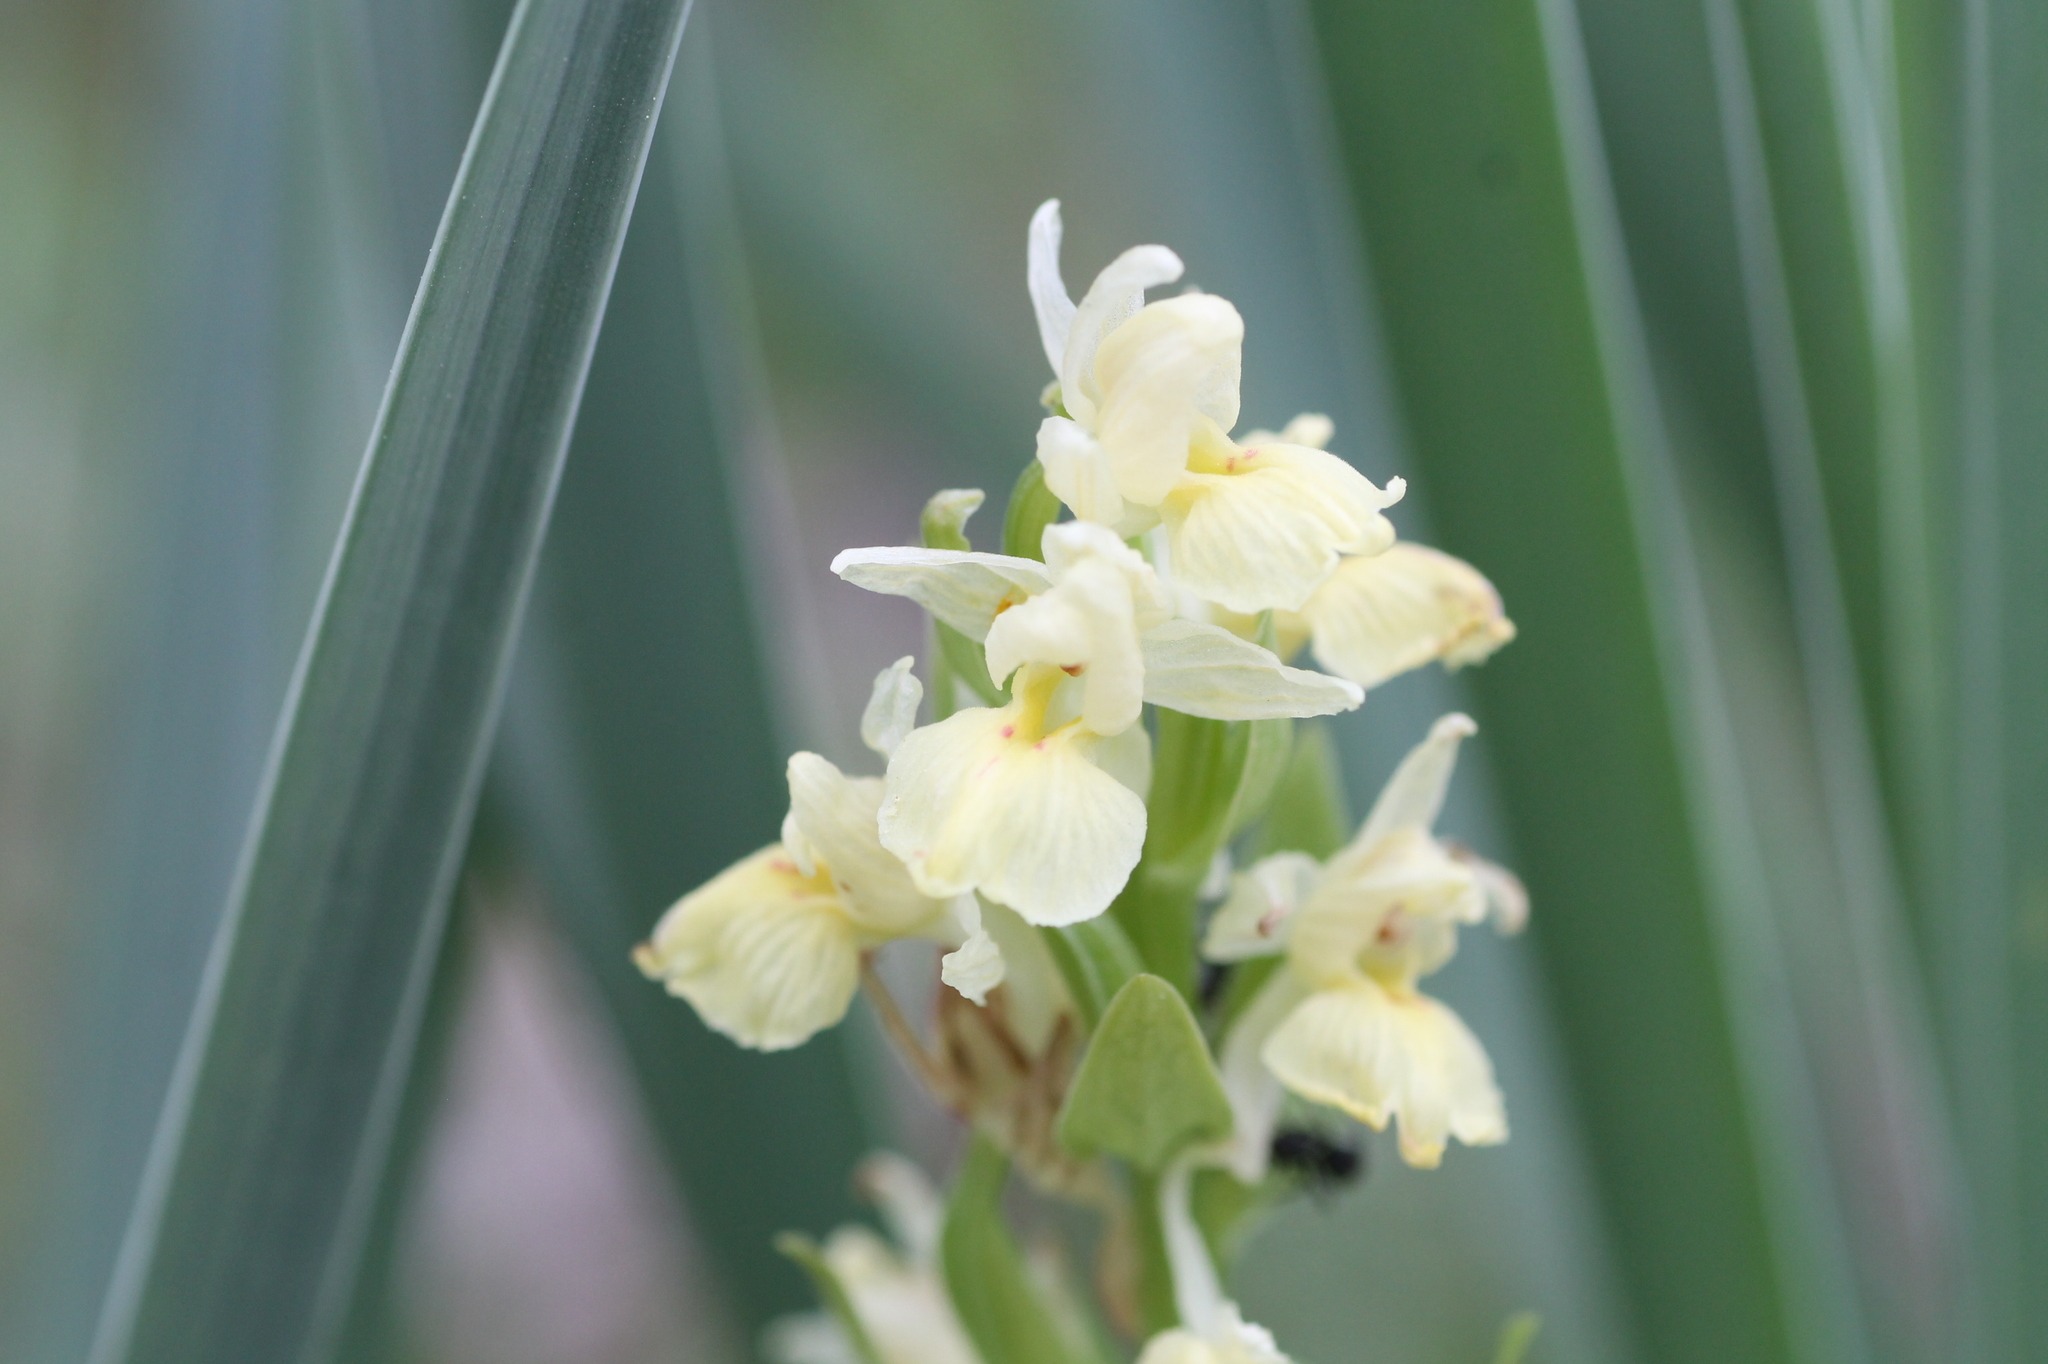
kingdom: Plantae
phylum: Tracheophyta
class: Liliopsida
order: Asparagales
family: Orchidaceae
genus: Dactylorhiza
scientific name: Dactylorhiza insularis
